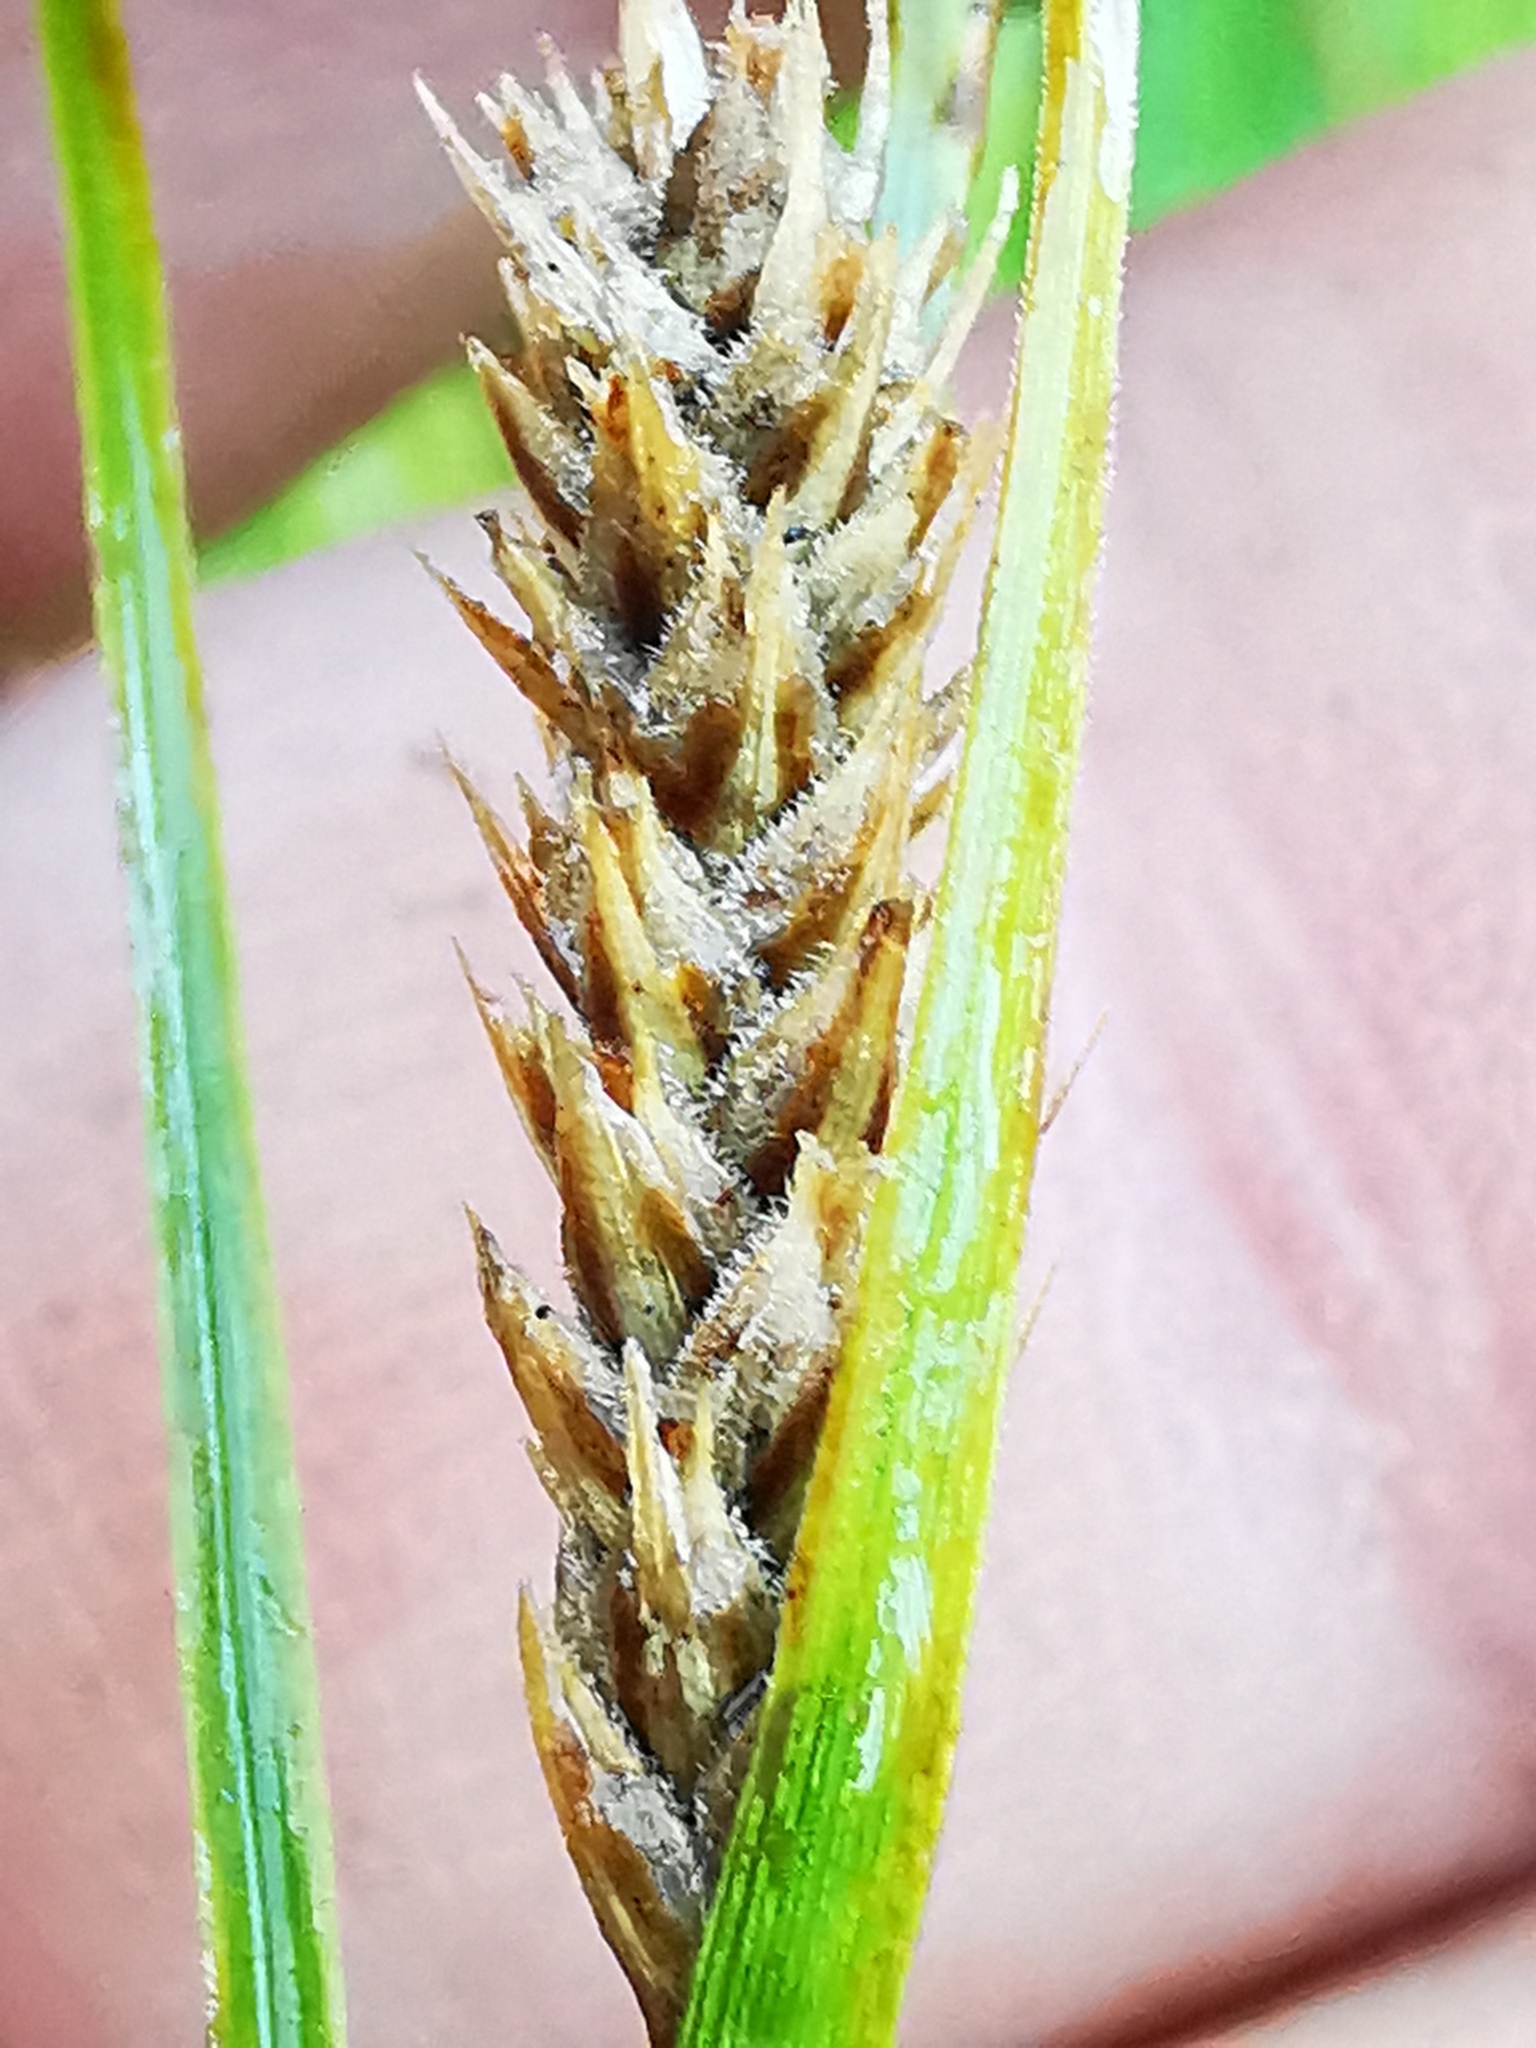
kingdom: Plantae
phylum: Tracheophyta
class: Liliopsida
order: Poales
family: Cyperaceae
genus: Carex
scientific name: Carex lasiocarpa
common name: Slender sedge
